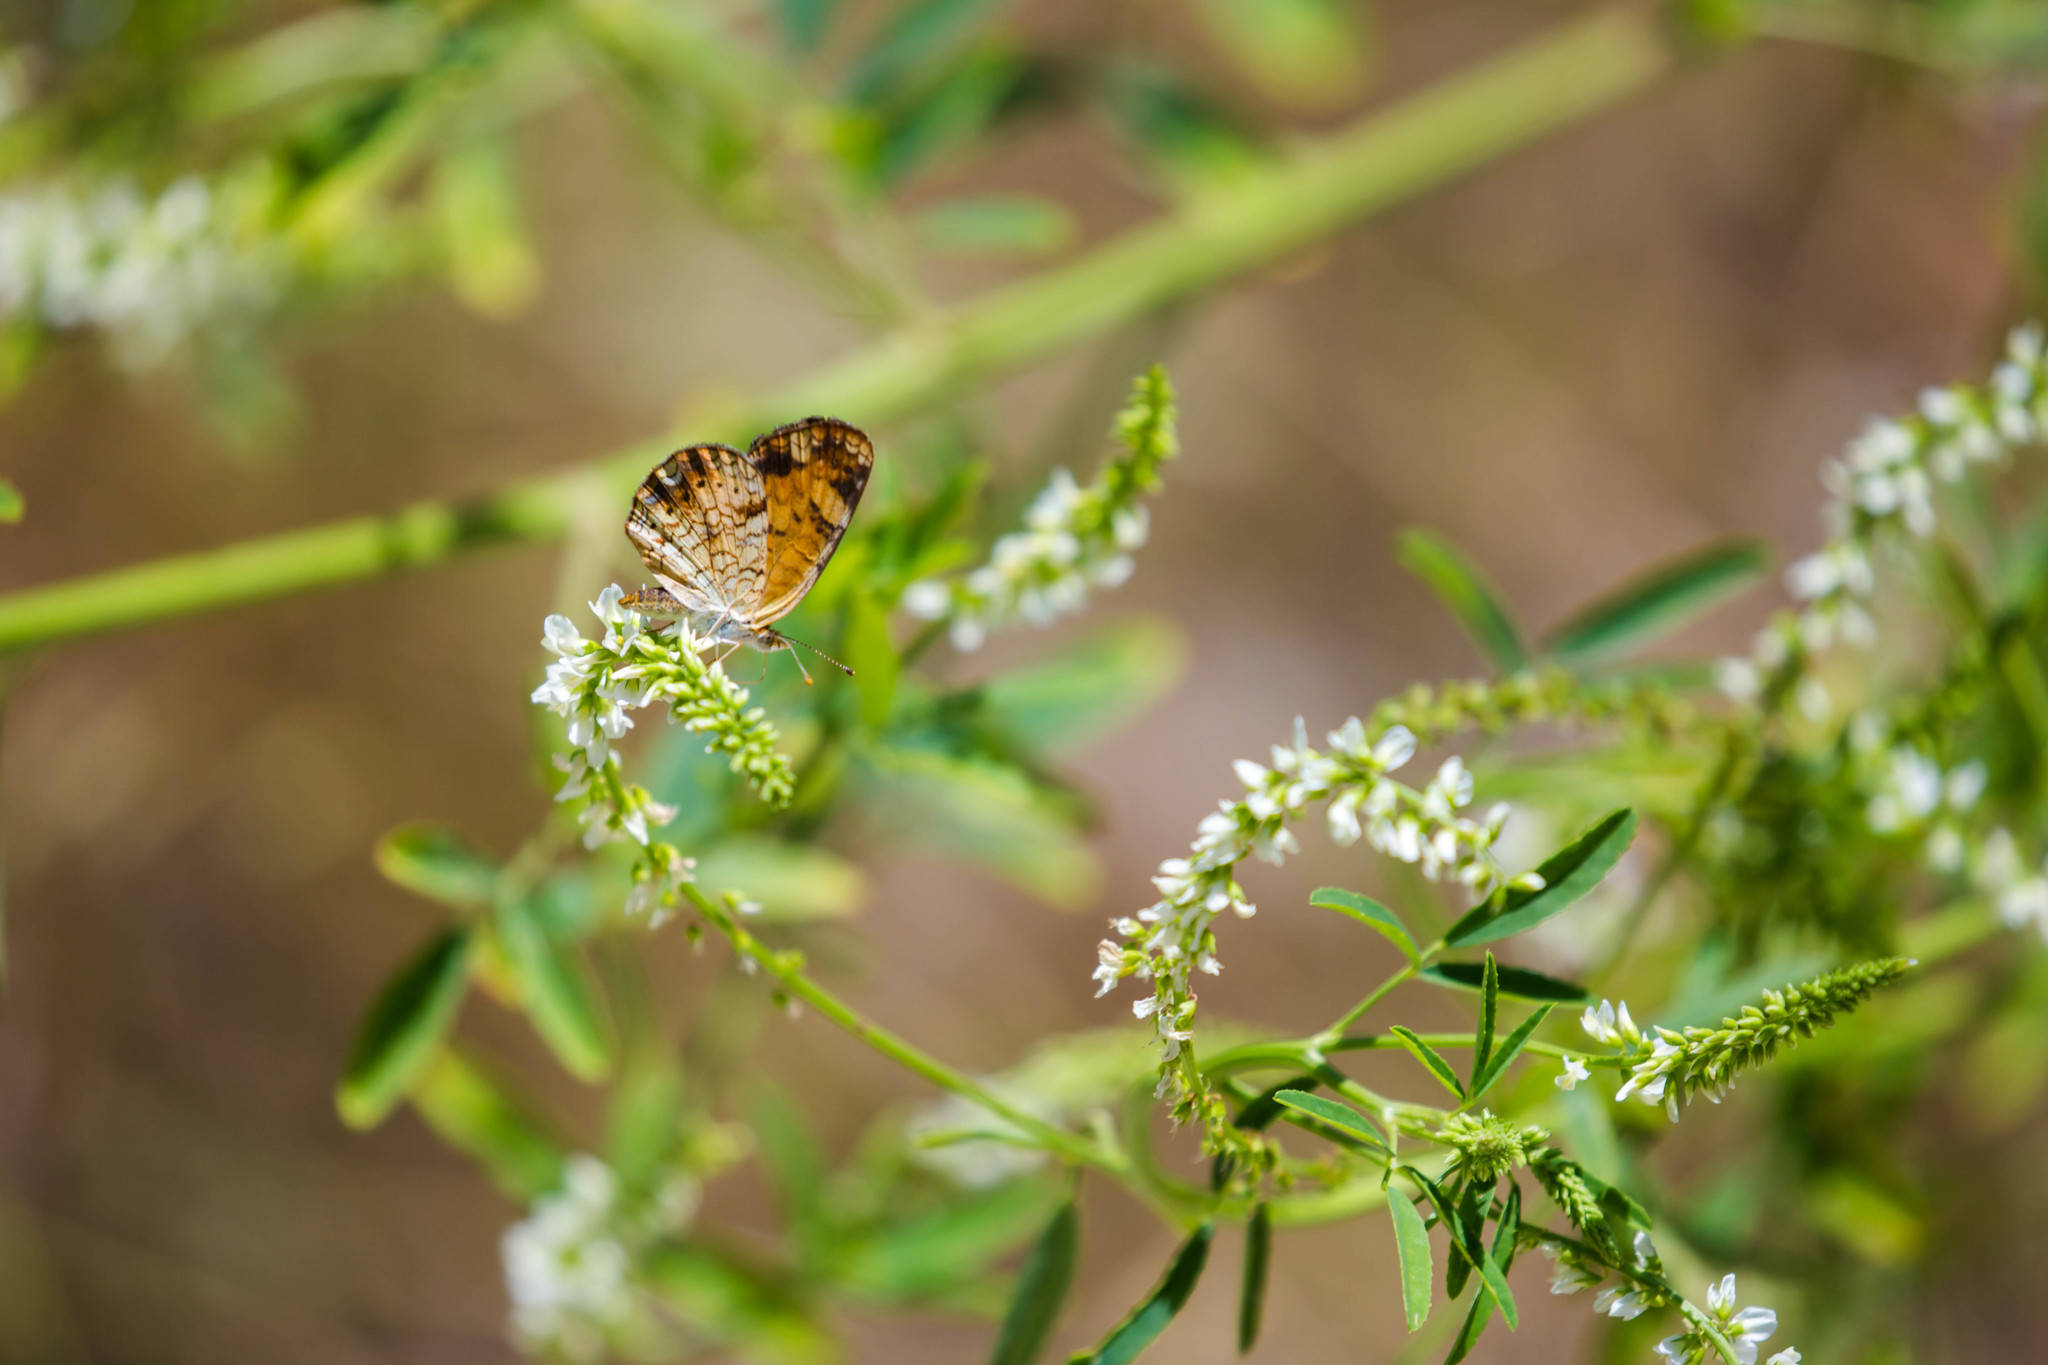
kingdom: Animalia
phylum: Arthropoda
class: Insecta
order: Lepidoptera
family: Nymphalidae
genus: Phyciodes
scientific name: Phyciodes tharos
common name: Pearl crescent
